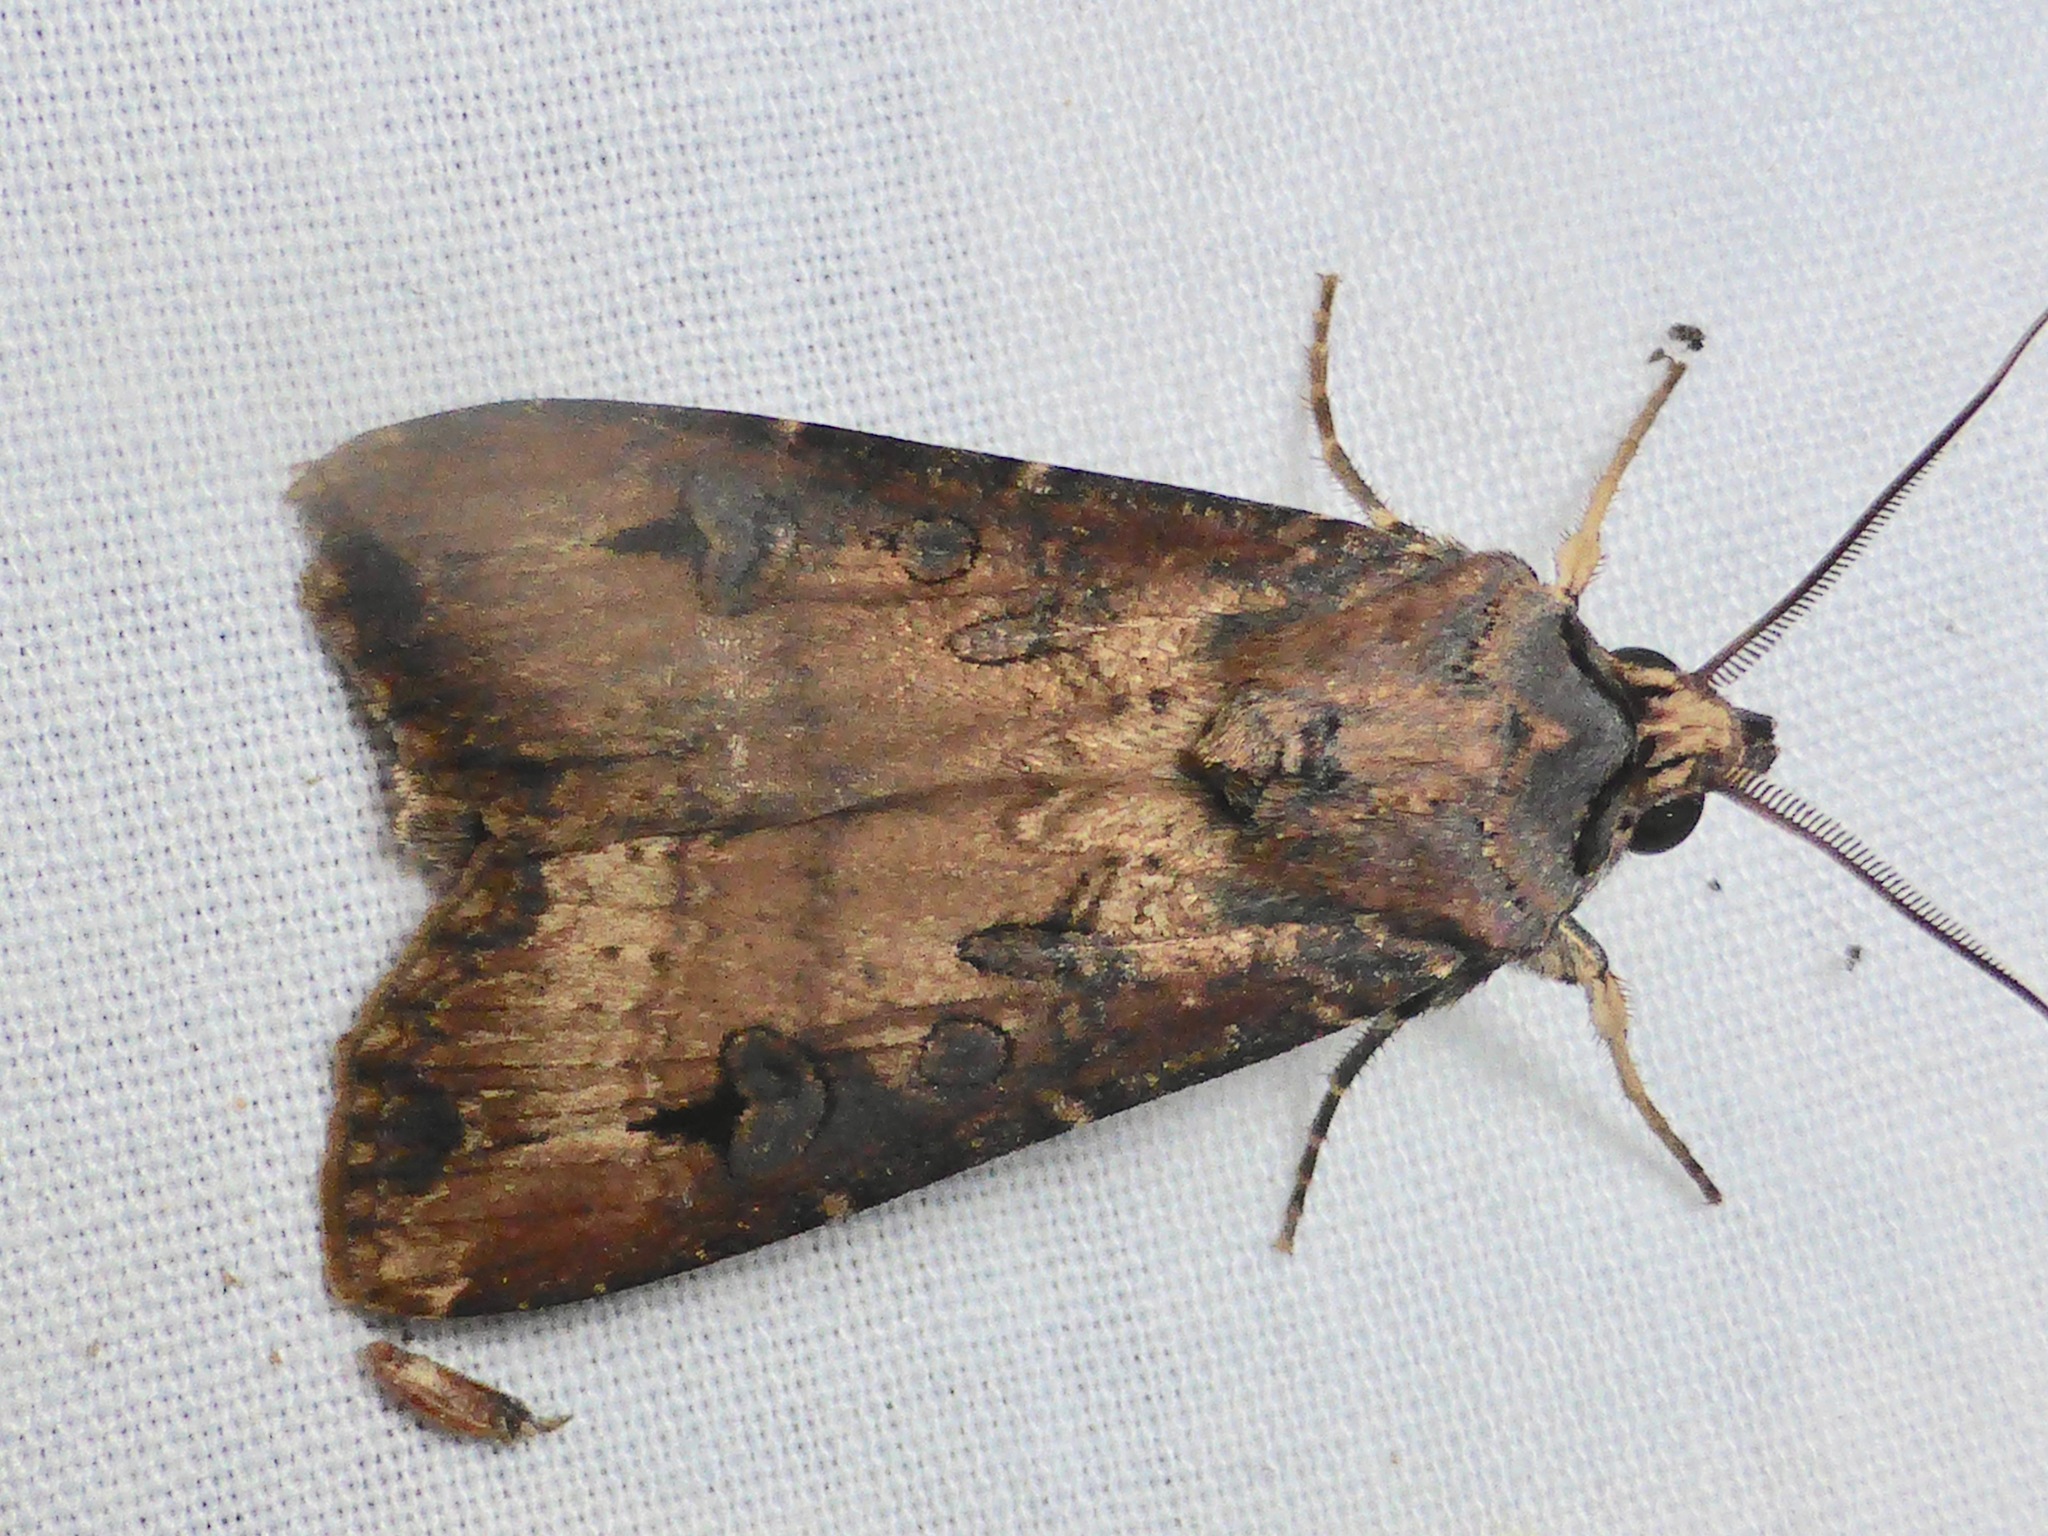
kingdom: Animalia
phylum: Arthropoda
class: Insecta
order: Lepidoptera
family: Noctuidae
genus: Agrotis
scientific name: Agrotis ipsilon
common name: Dark sword-grass
